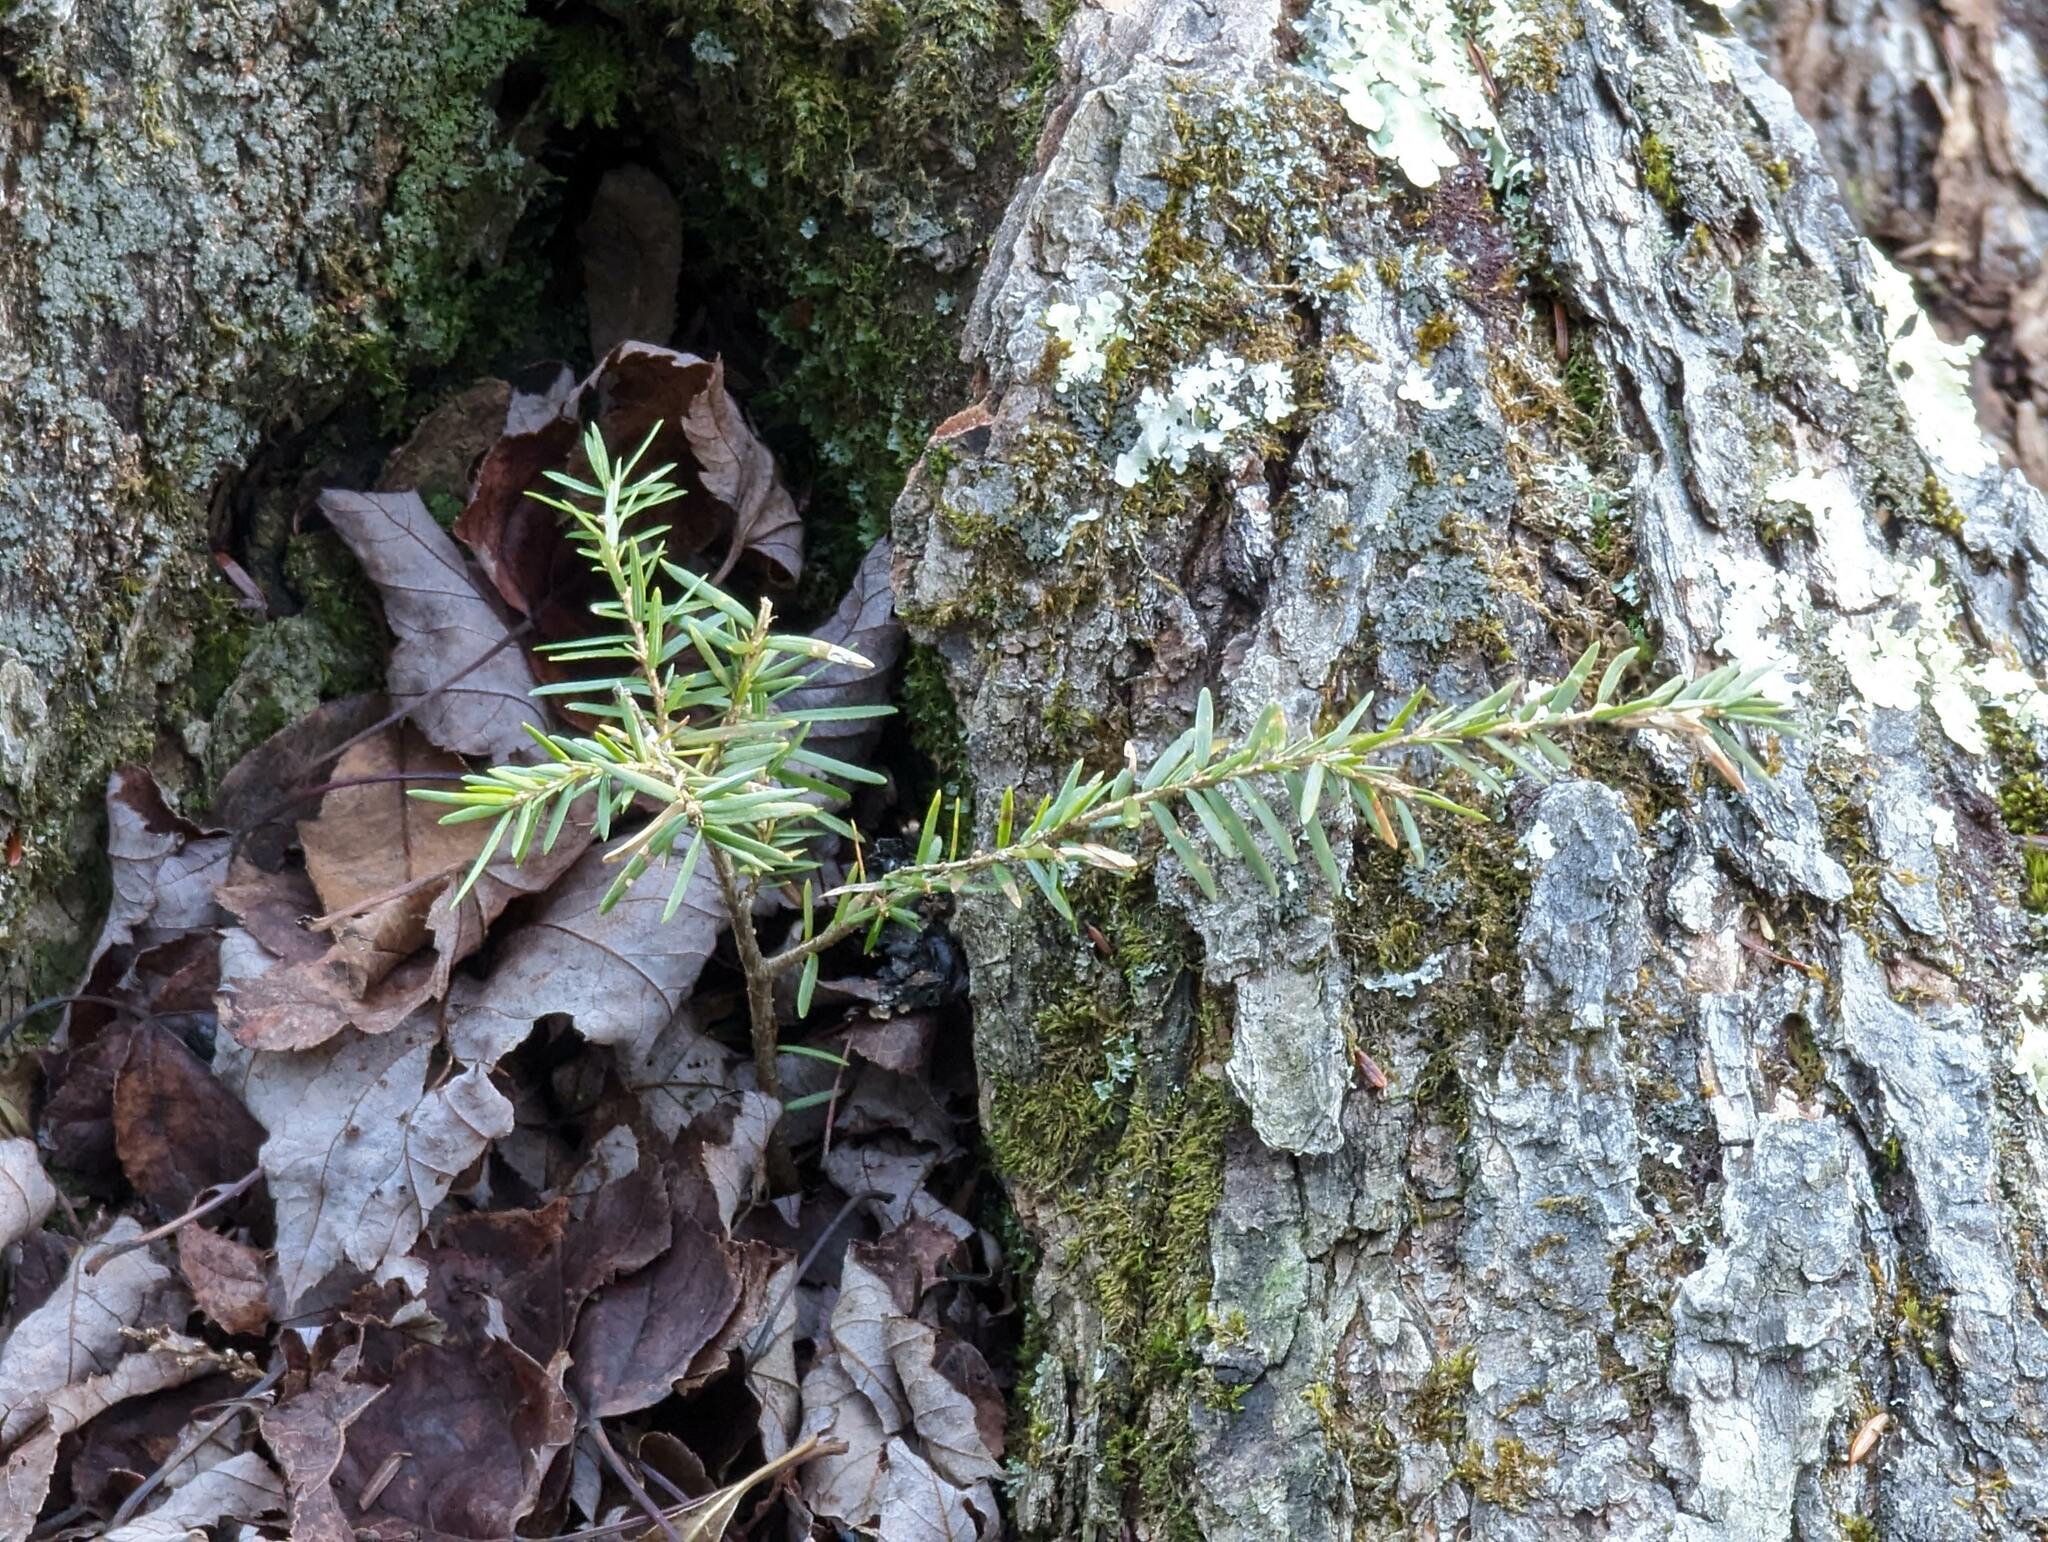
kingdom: Plantae
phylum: Tracheophyta
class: Pinopsida
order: Pinales
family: Pinaceae
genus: Tsuga
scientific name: Tsuga canadensis
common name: Eastern hemlock
